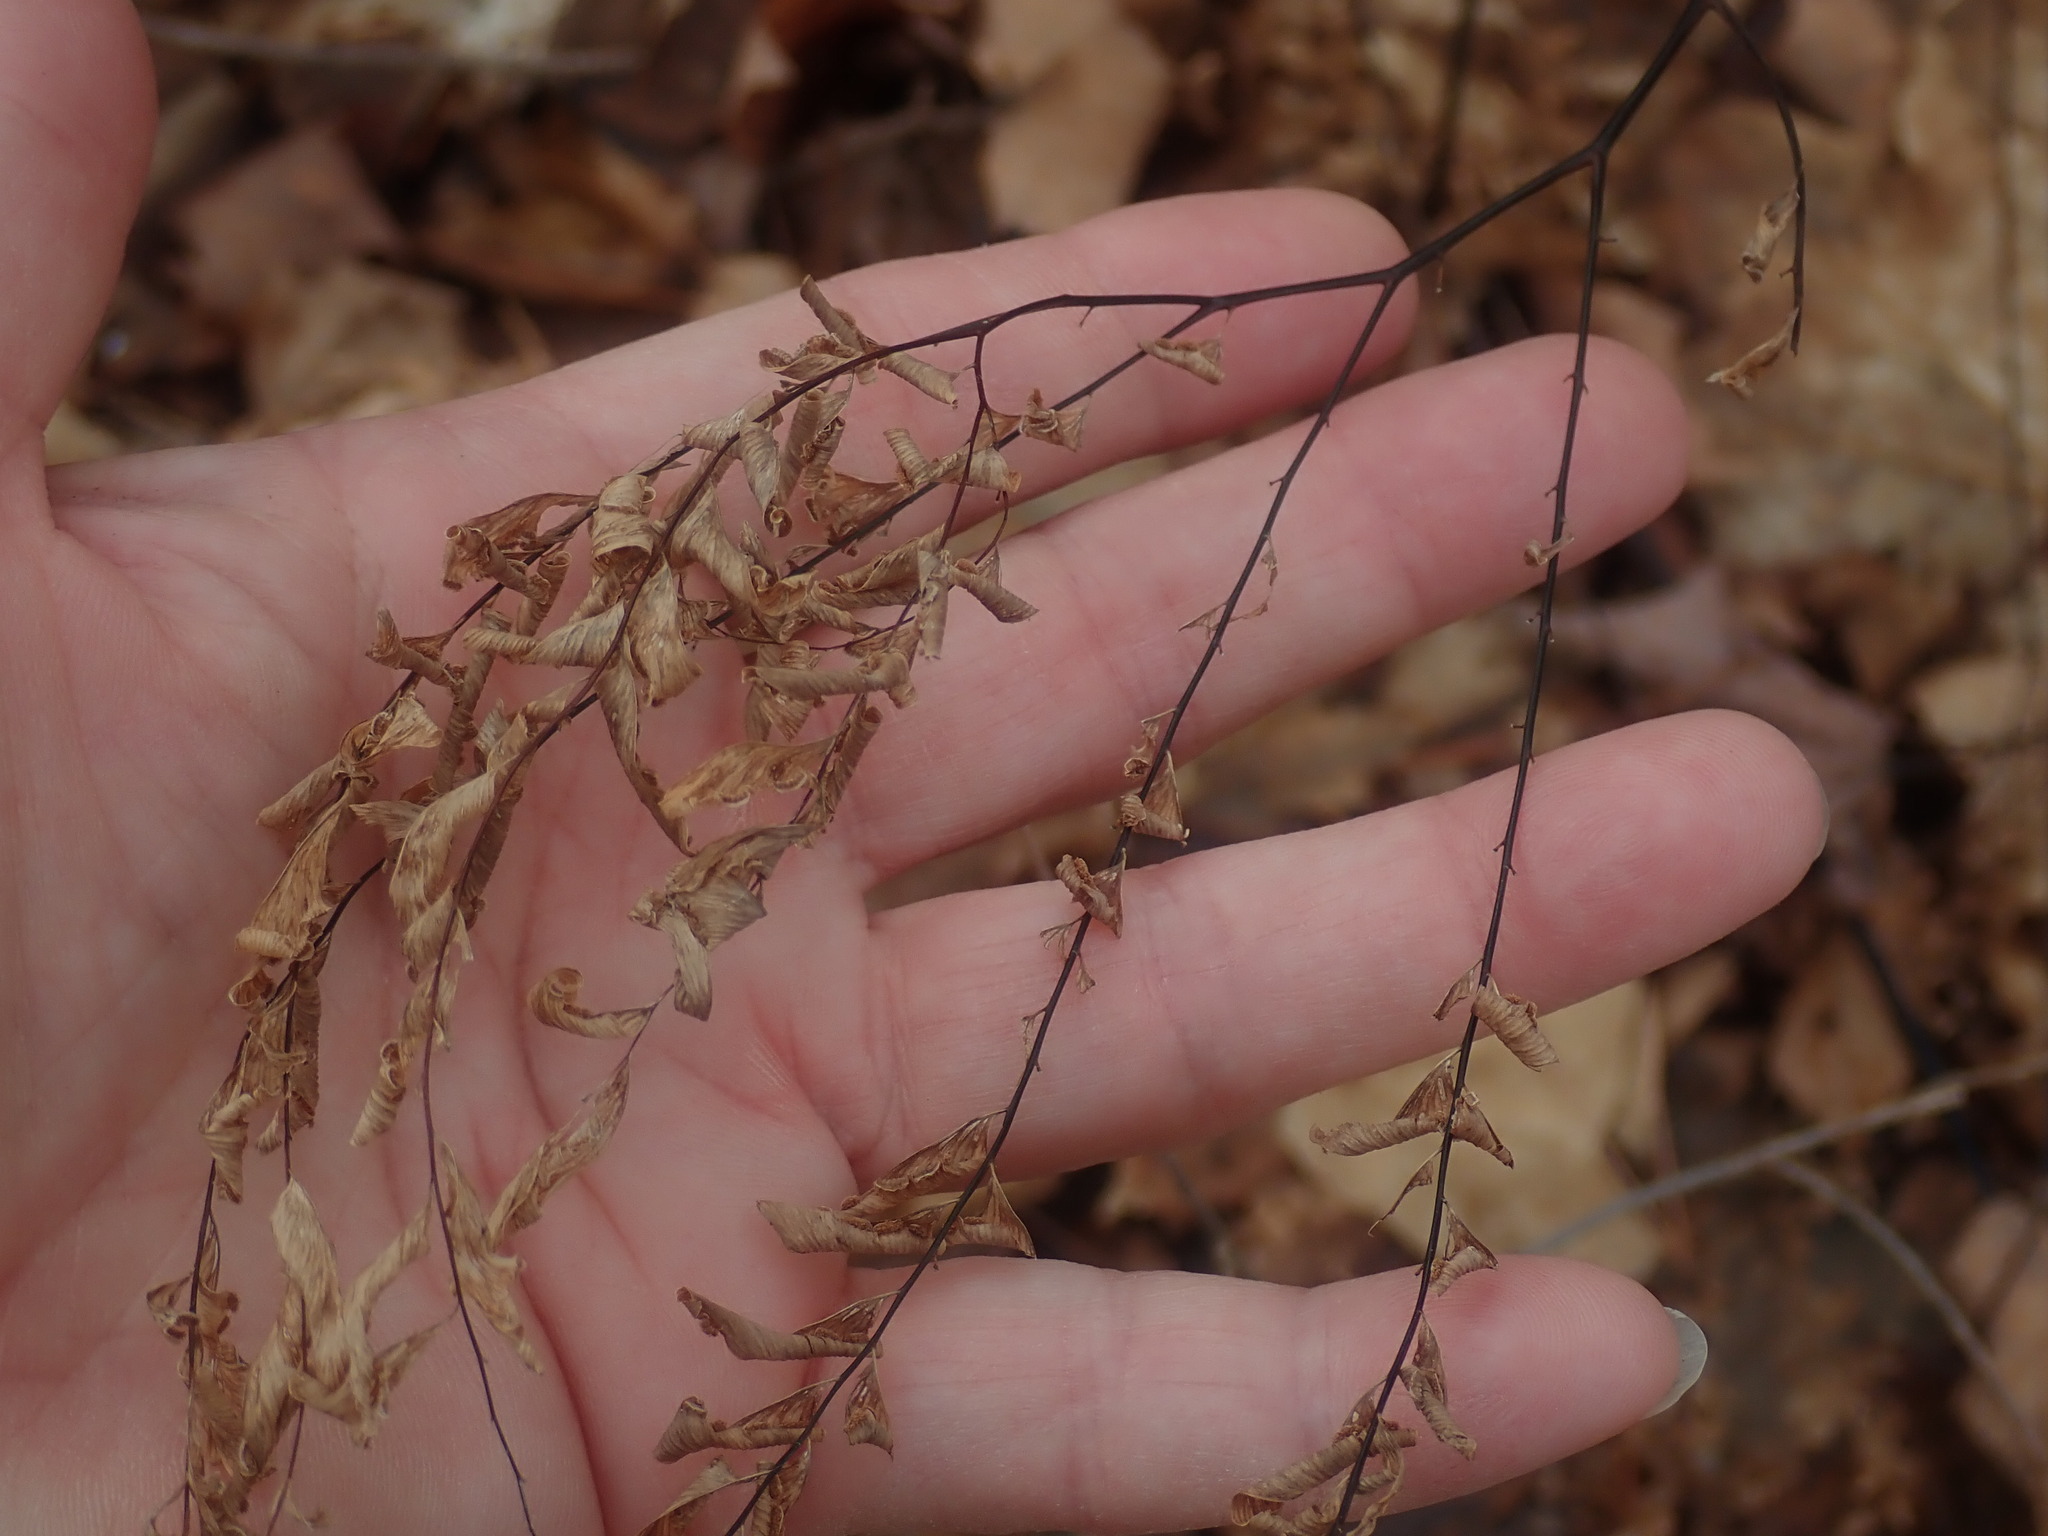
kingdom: Plantae
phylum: Tracheophyta
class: Polypodiopsida
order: Polypodiales
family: Pteridaceae
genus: Adiantum
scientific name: Adiantum pedatum
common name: Five-finger fern
